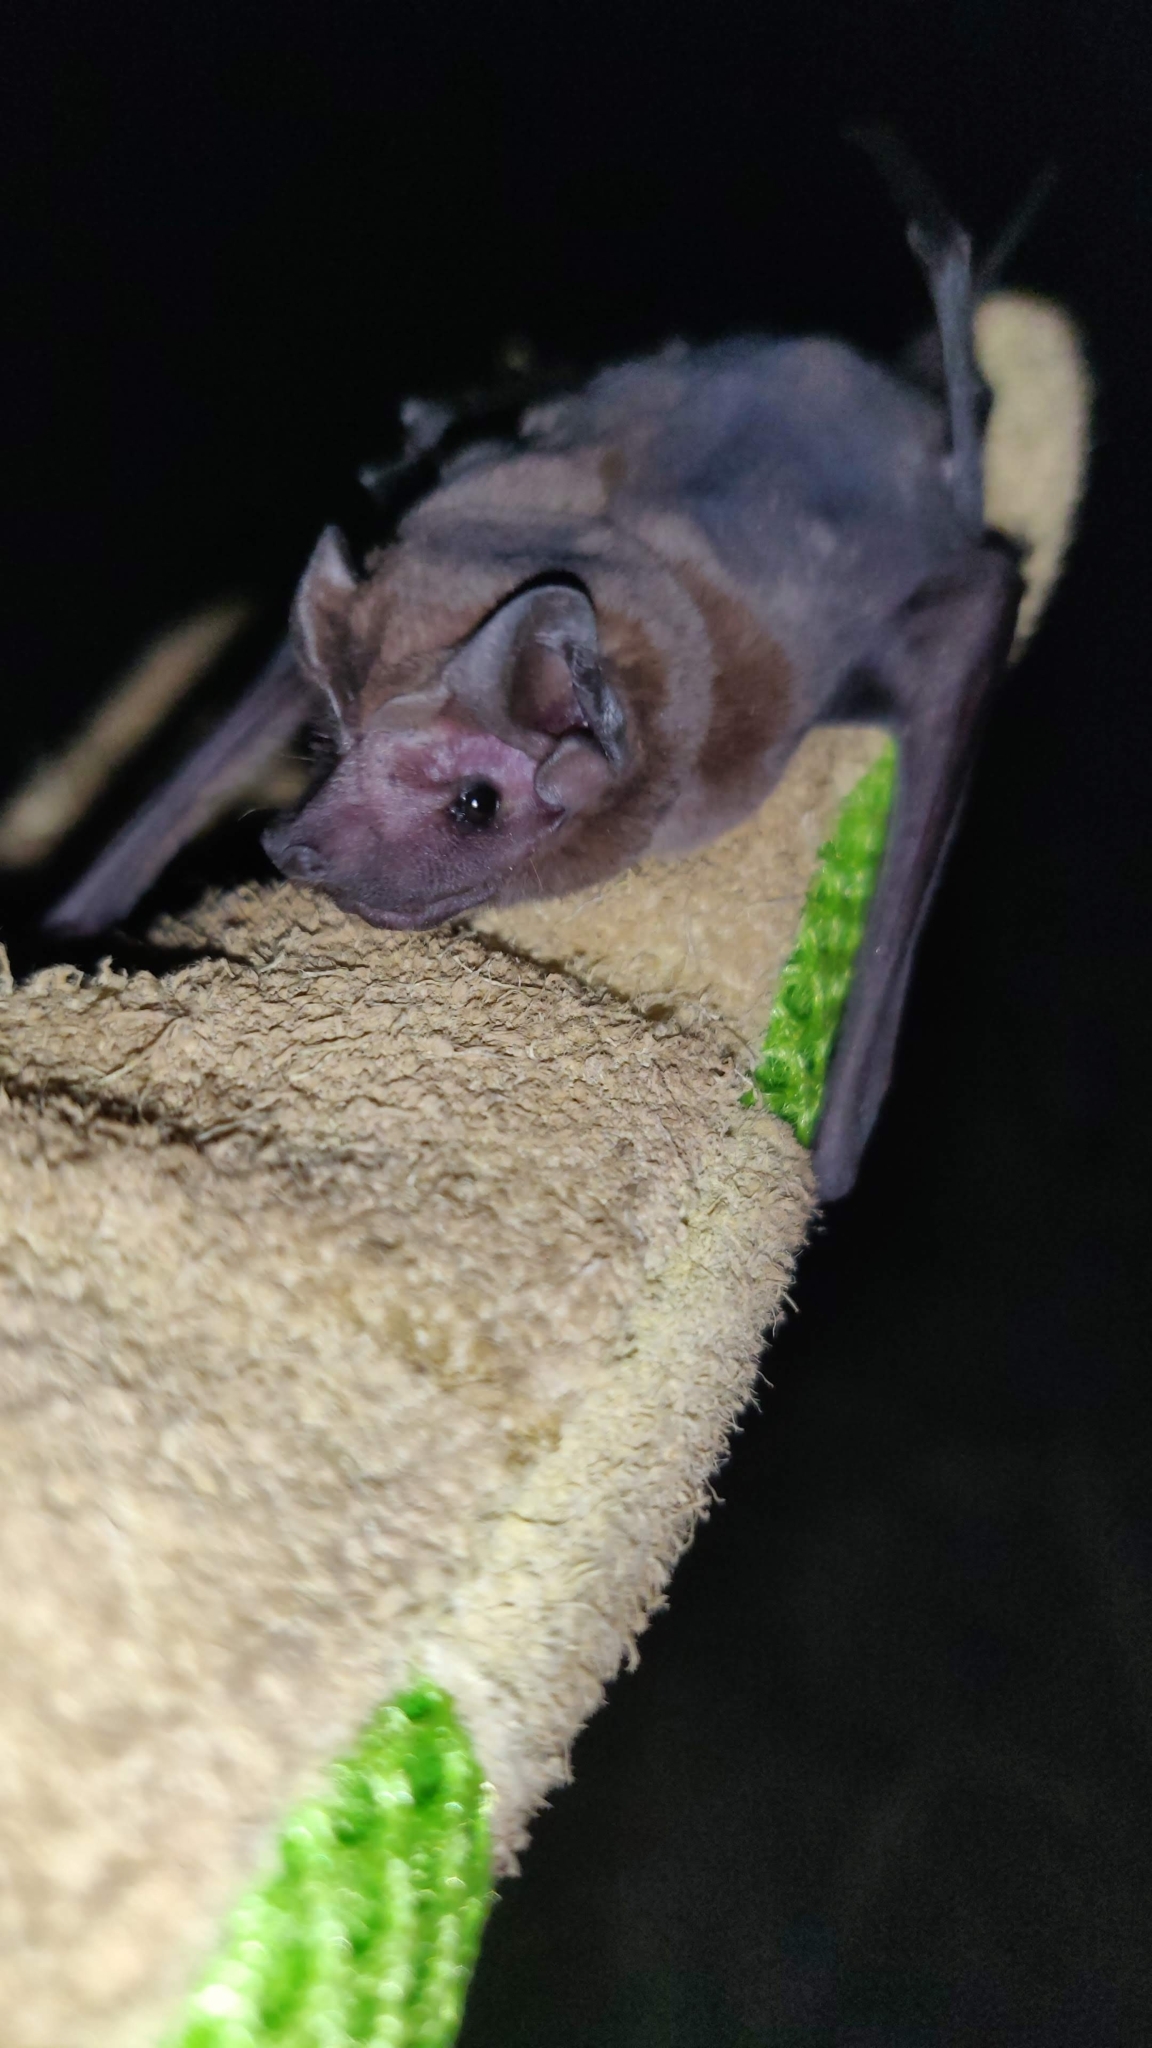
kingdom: Animalia
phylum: Chordata
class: Mammalia
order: Chiroptera
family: Molossidae
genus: Molossus
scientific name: Molossus molossus
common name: Pallas's mastiff bat
